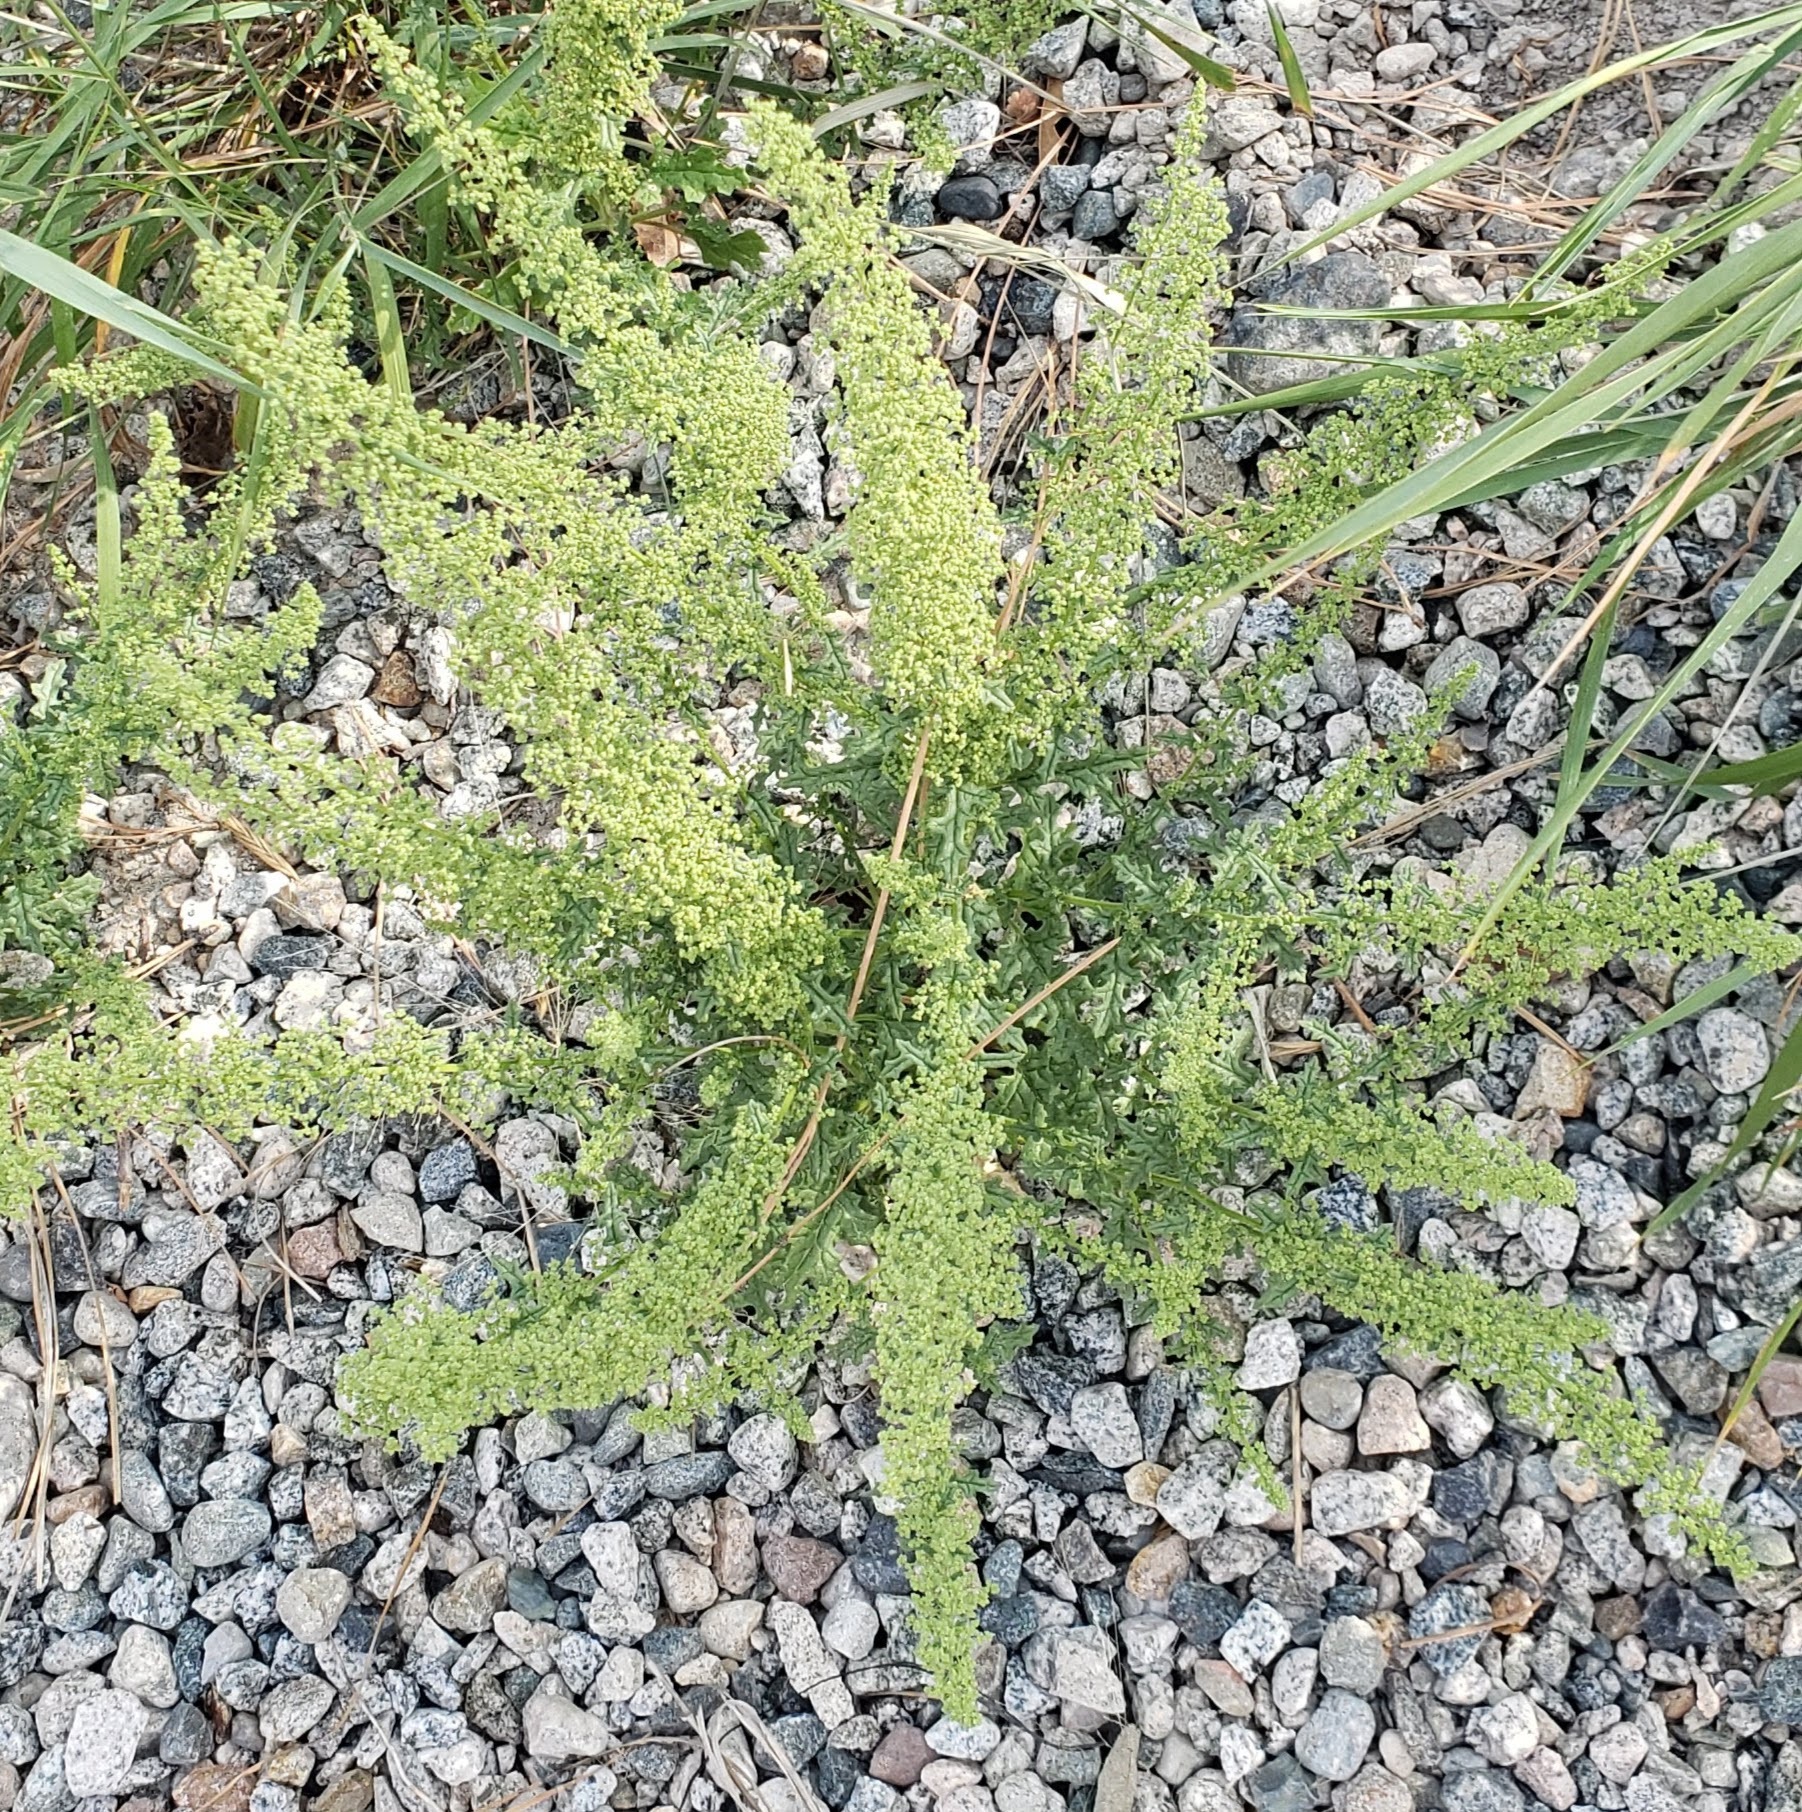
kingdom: Plantae
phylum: Tracheophyta
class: Magnoliopsida
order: Caryophyllales
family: Amaranthaceae
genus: Dysphania
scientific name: Dysphania botrys
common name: Feather-geranium
